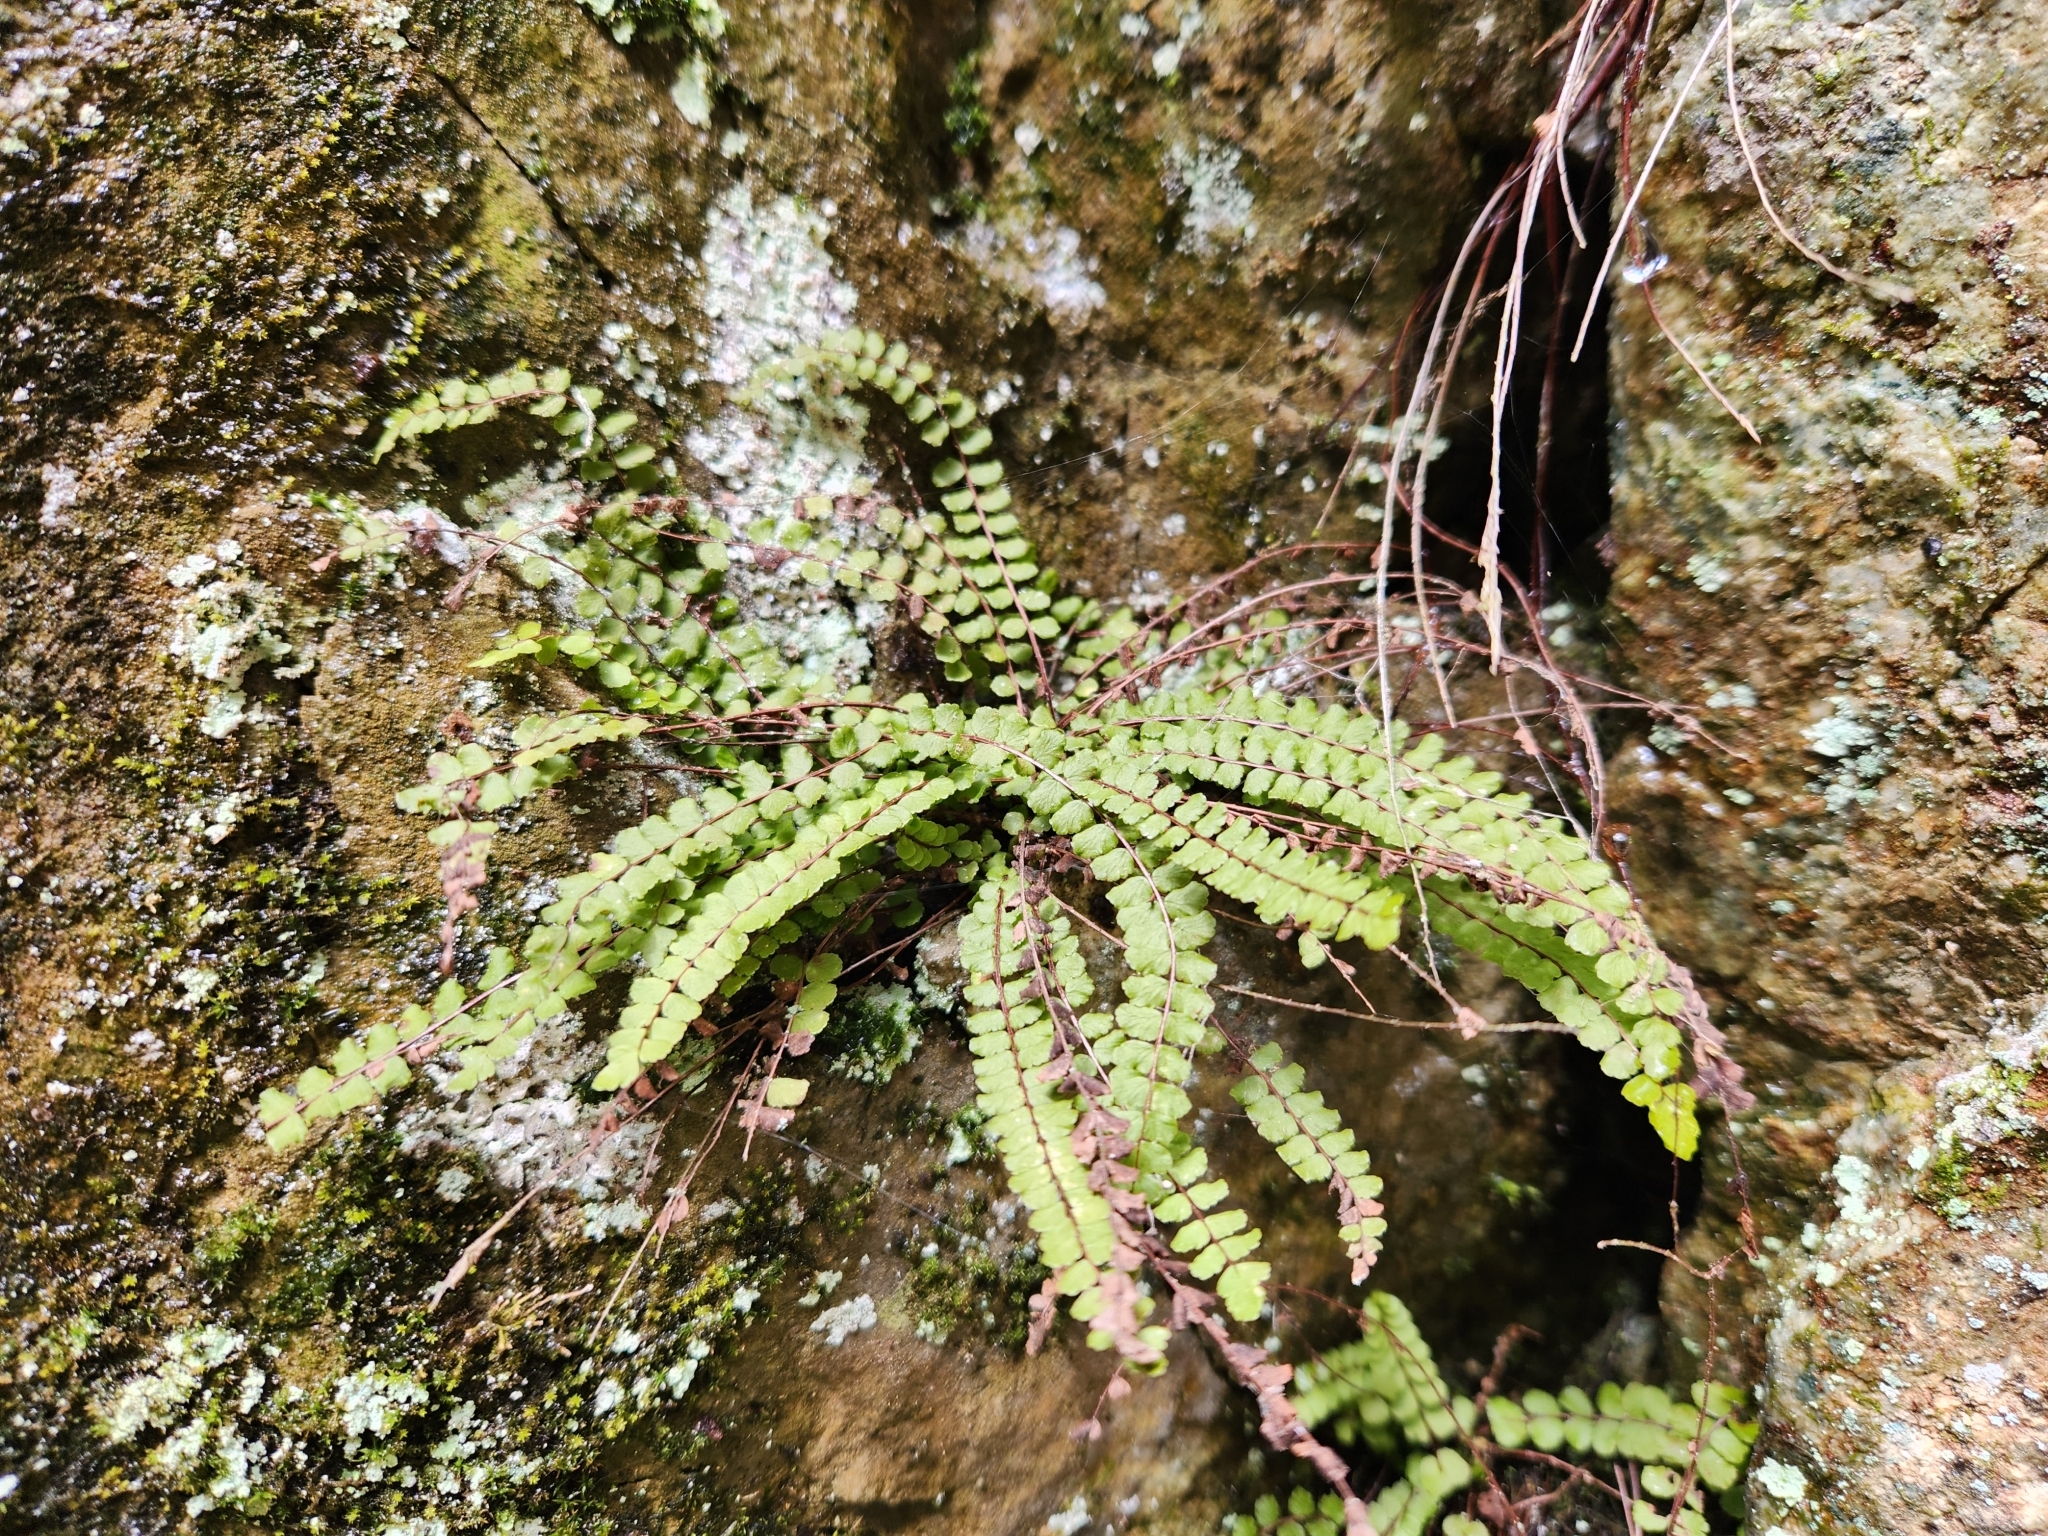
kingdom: Plantae
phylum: Tracheophyta
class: Polypodiopsida
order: Polypodiales
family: Aspleniaceae
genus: Asplenium
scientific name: Asplenium trichomanes
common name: Maidenhair spleenwort
